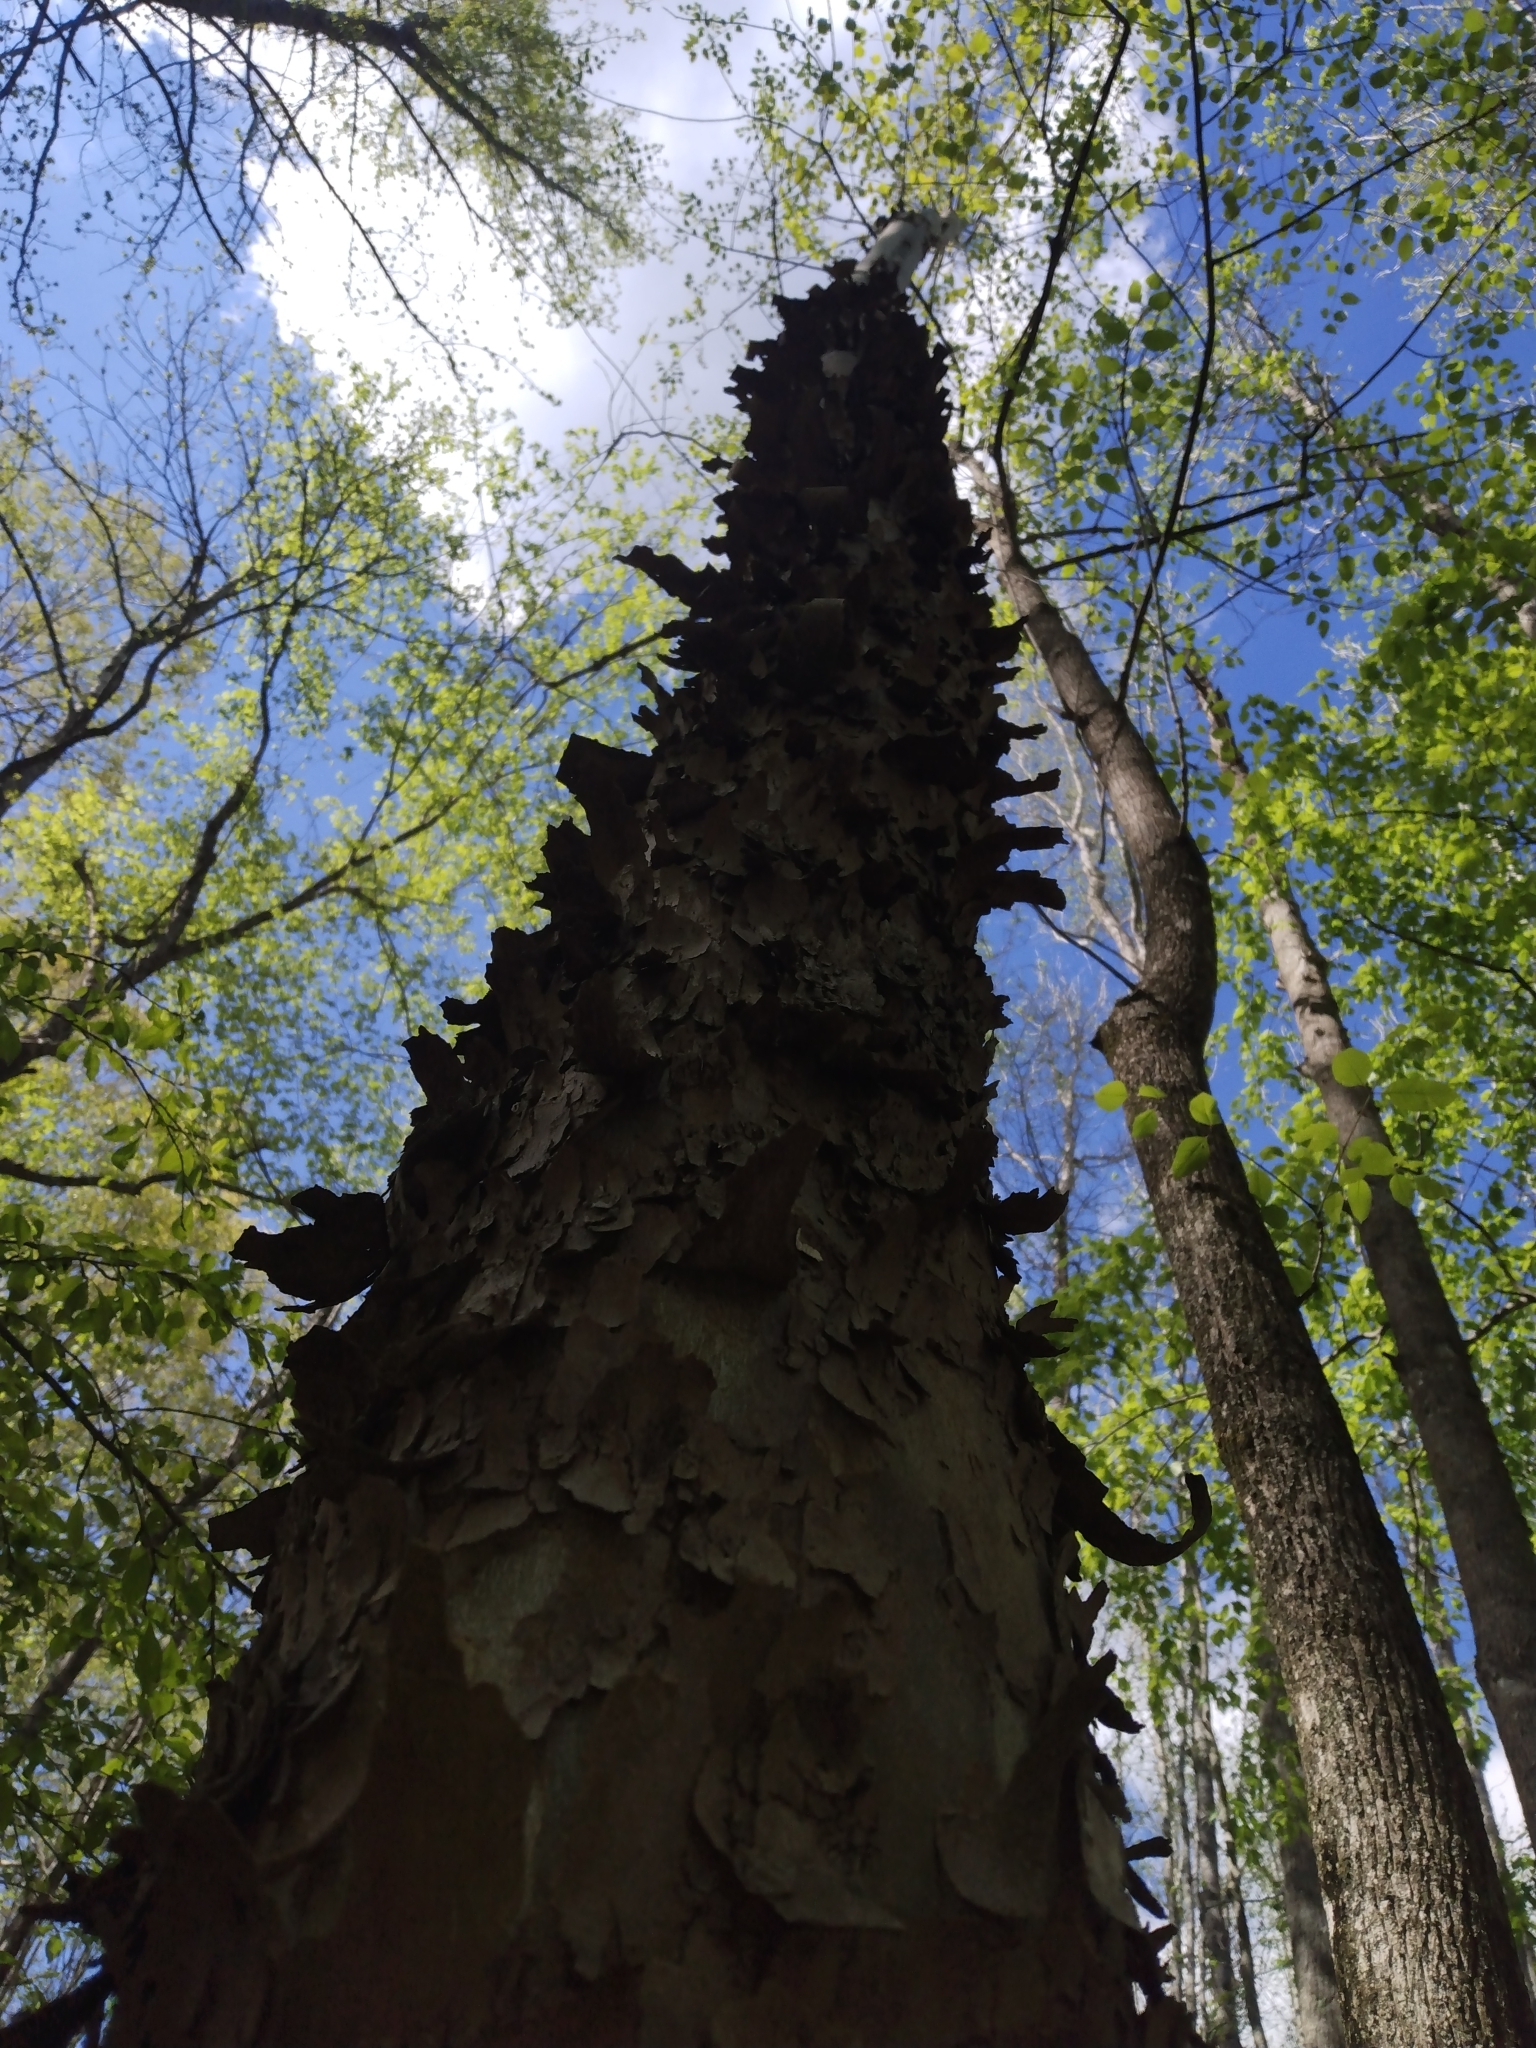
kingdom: Plantae
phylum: Tracheophyta
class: Magnoliopsida
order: Proteales
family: Platanaceae
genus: Platanus
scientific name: Platanus occidentalis
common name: American sycamore
